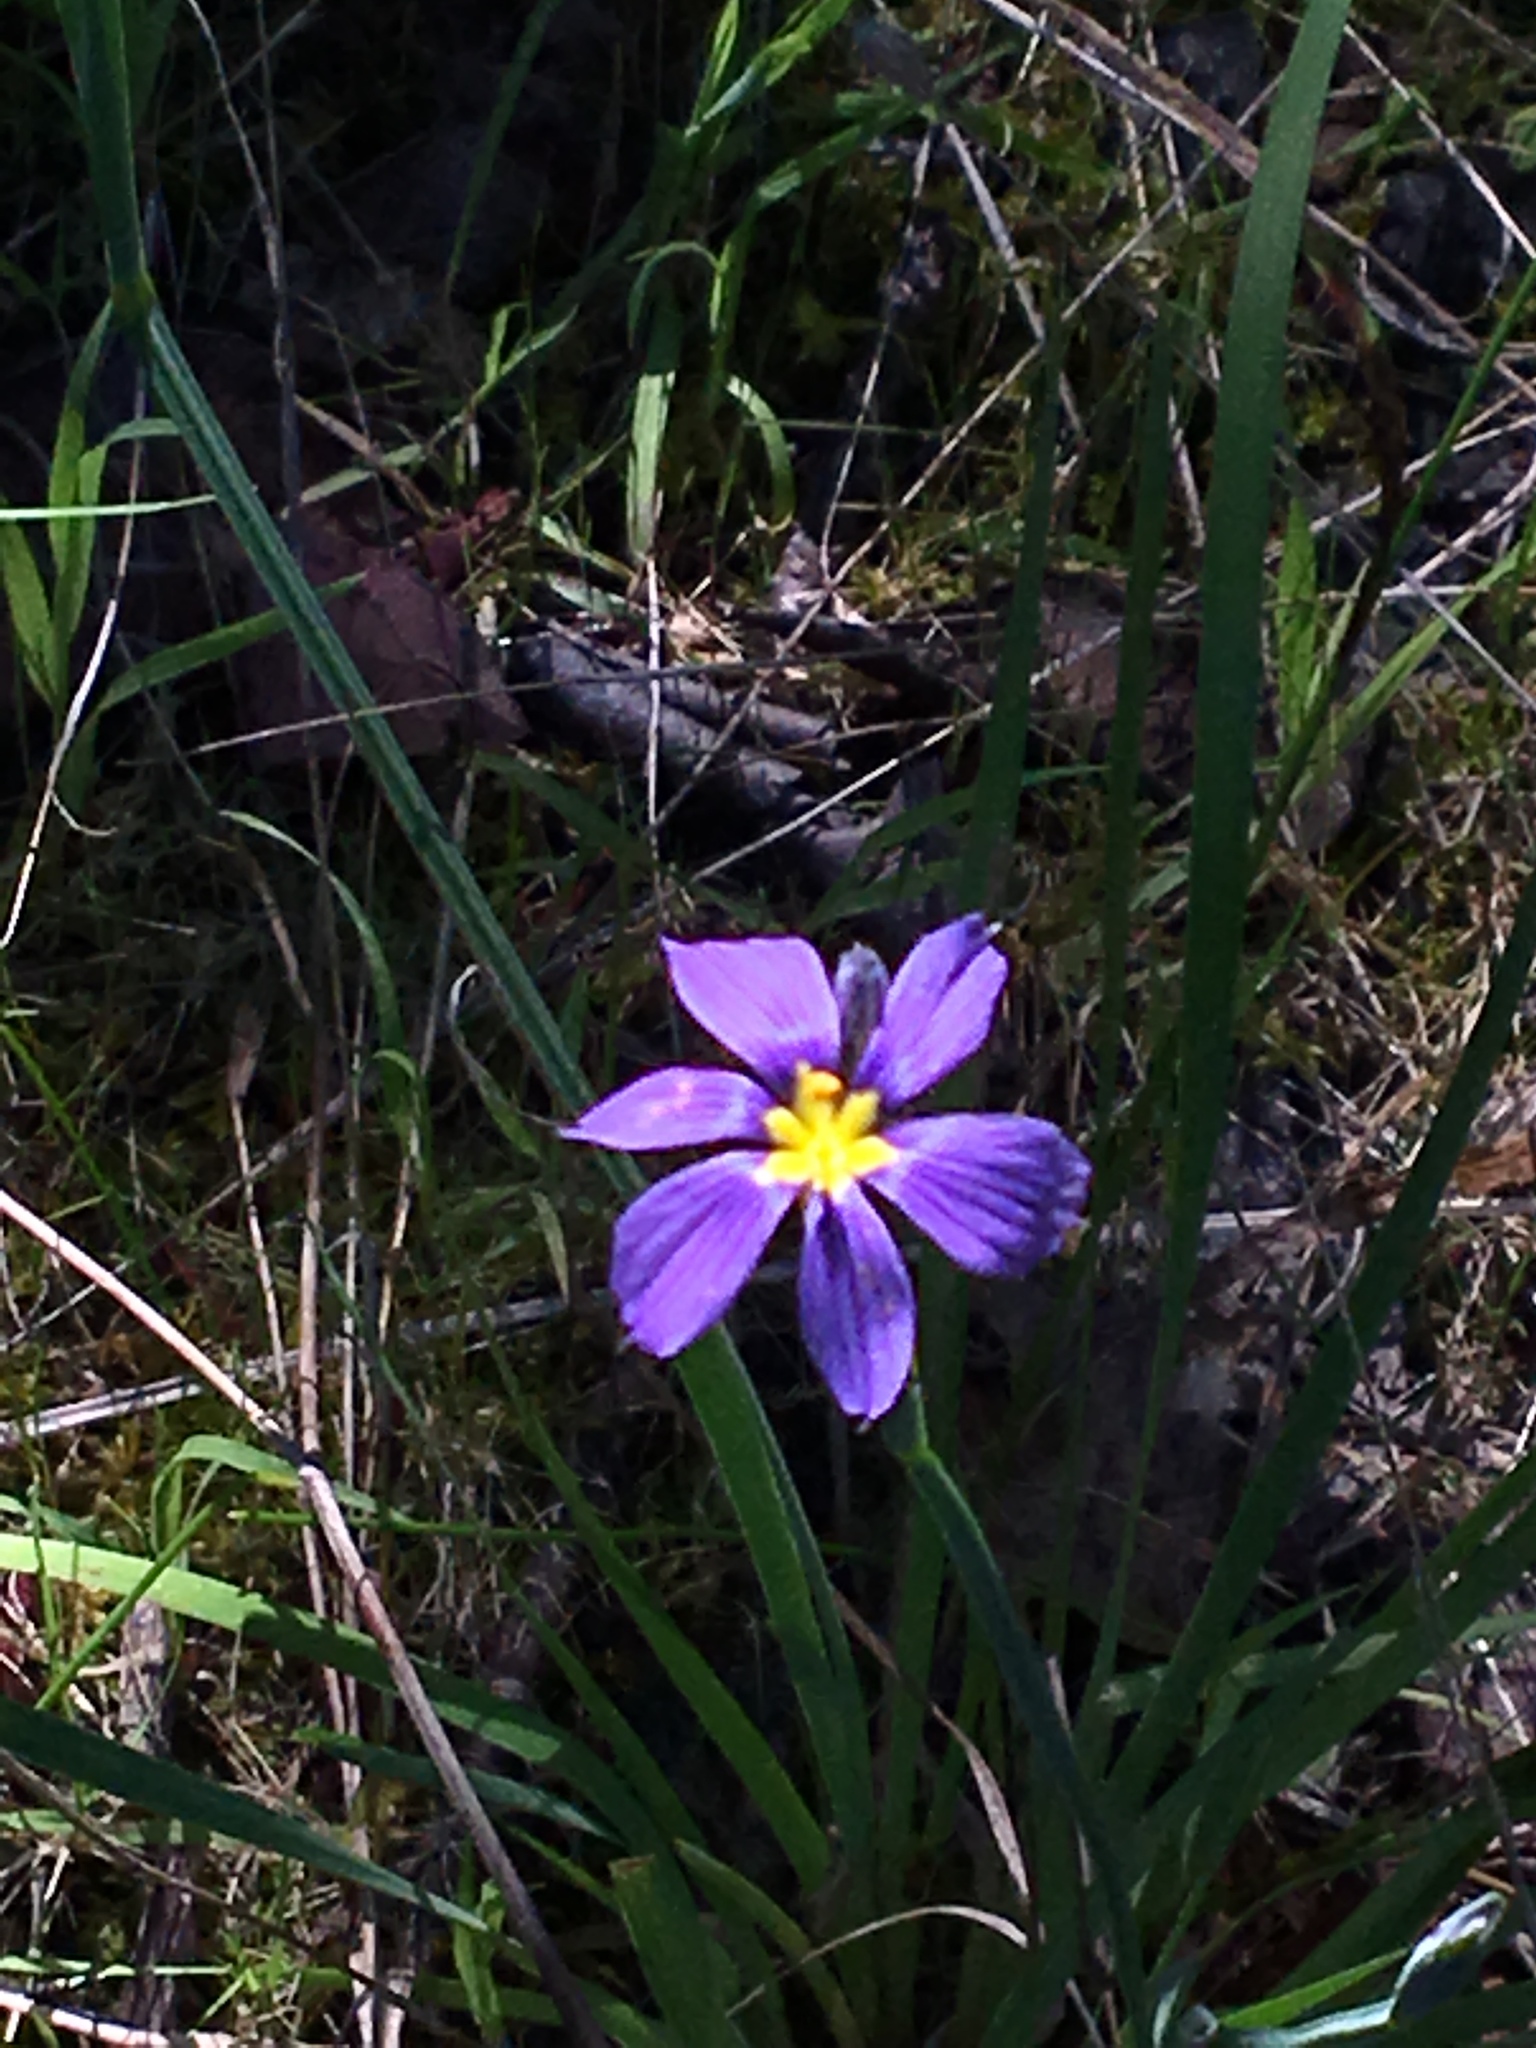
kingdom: Plantae
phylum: Tracheophyta
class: Liliopsida
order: Asparagales
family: Iridaceae
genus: Sisyrinchium
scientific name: Sisyrinchium bellum
